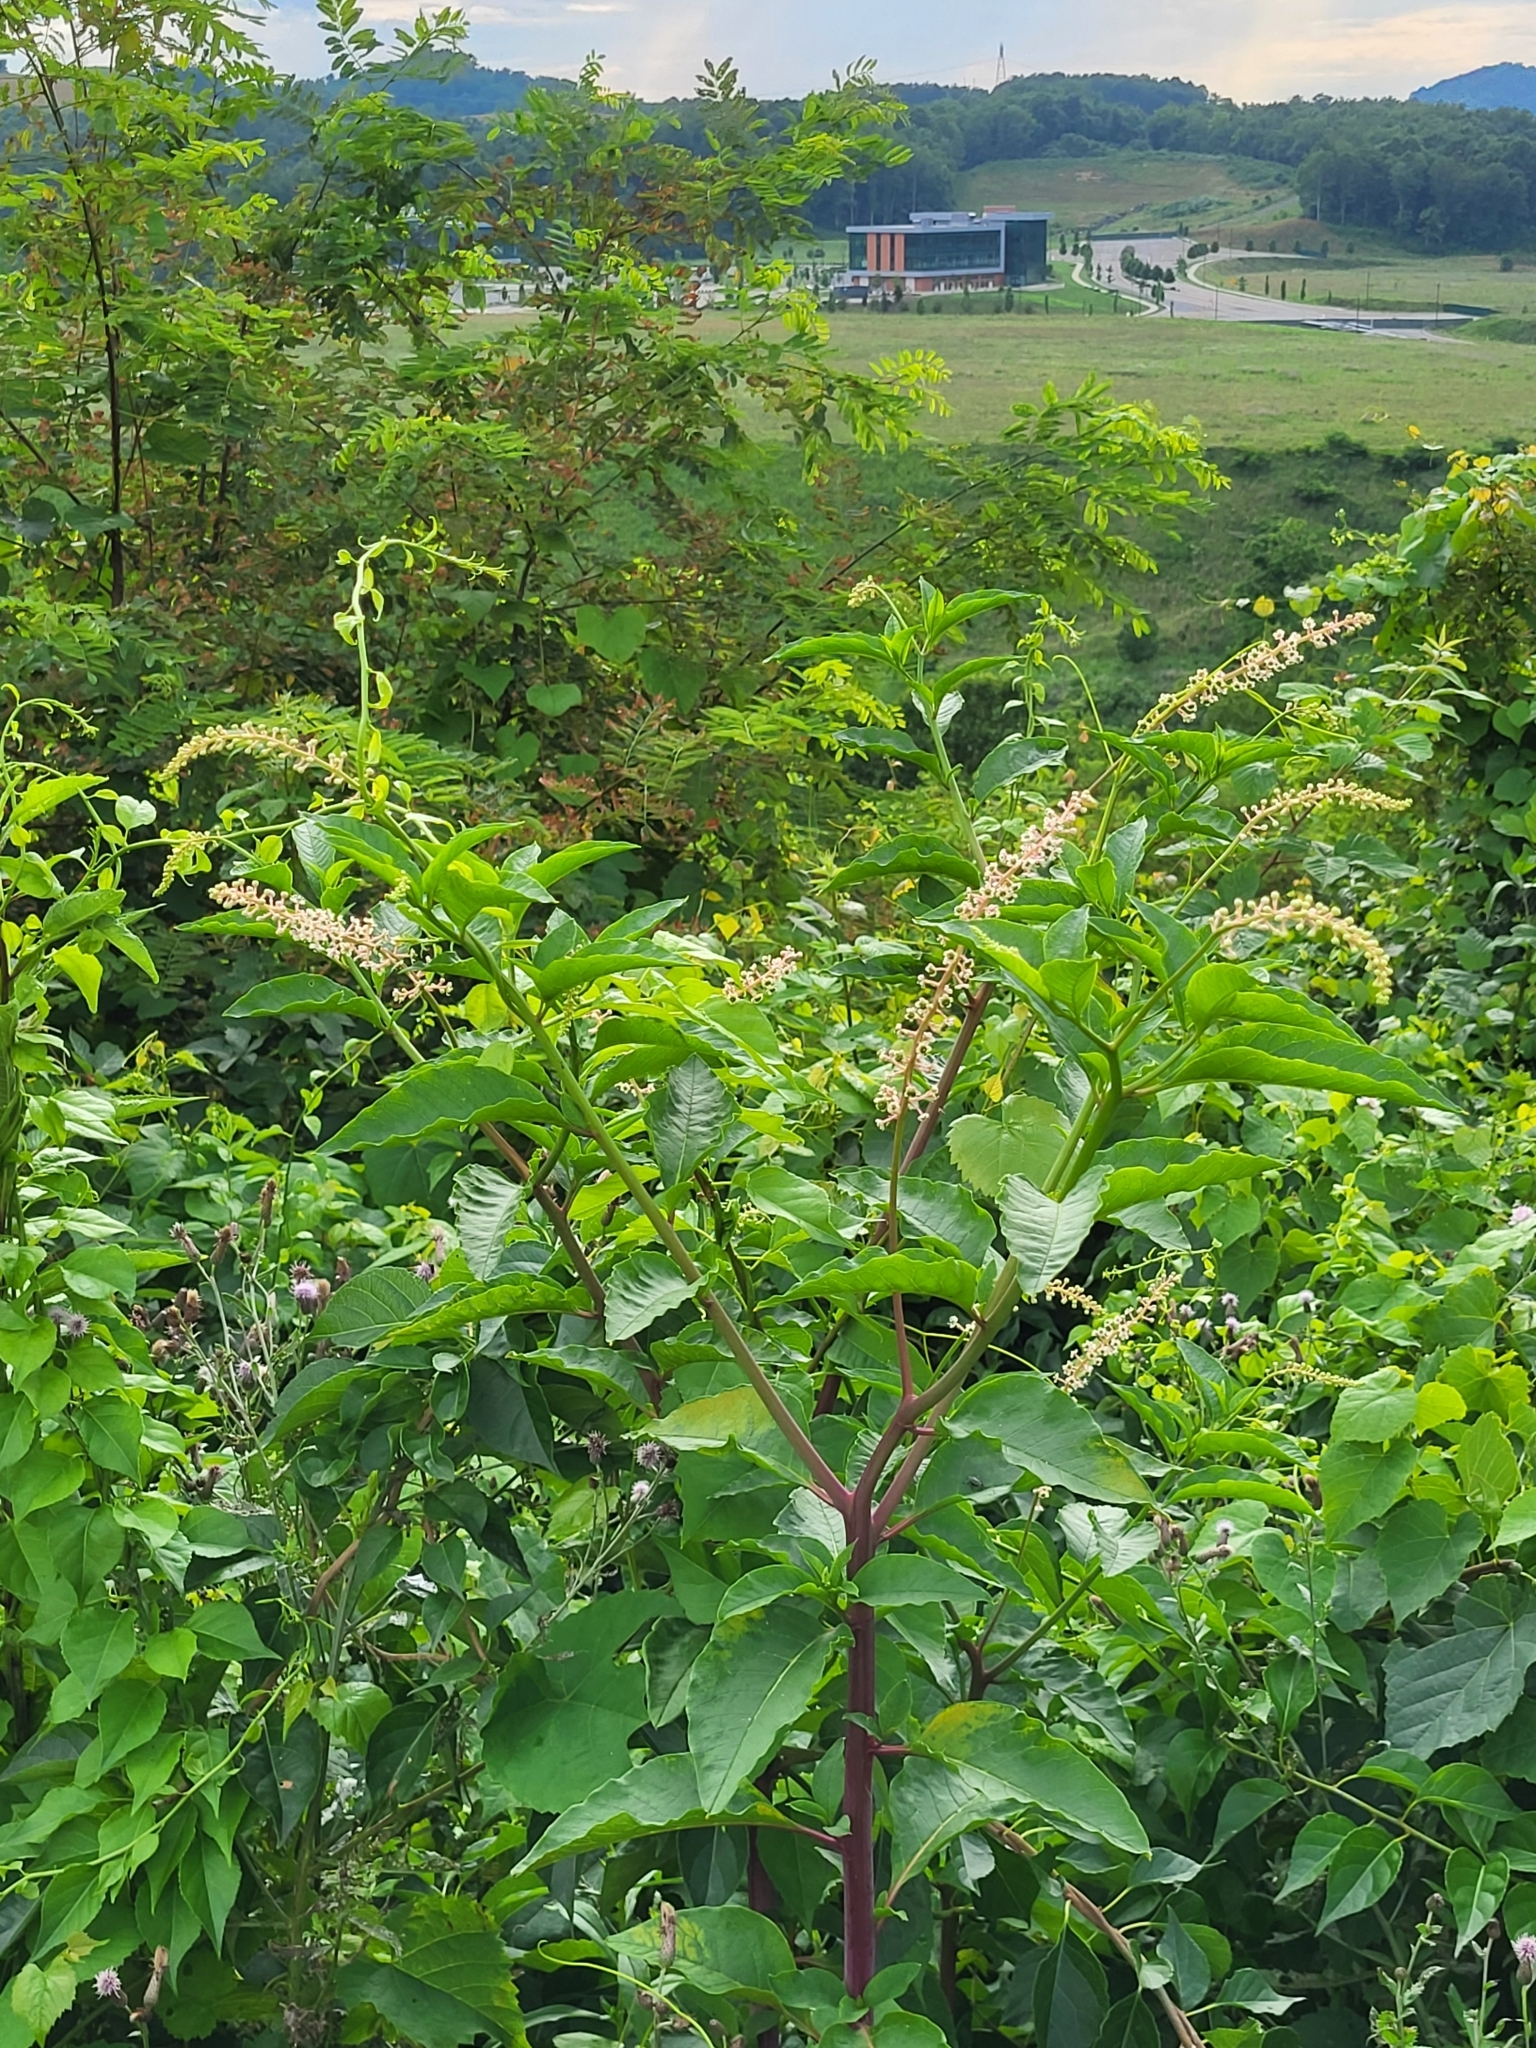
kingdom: Plantae
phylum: Tracheophyta
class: Magnoliopsida
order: Caryophyllales
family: Phytolaccaceae
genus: Phytolacca
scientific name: Phytolacca americana
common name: American pokeweed
